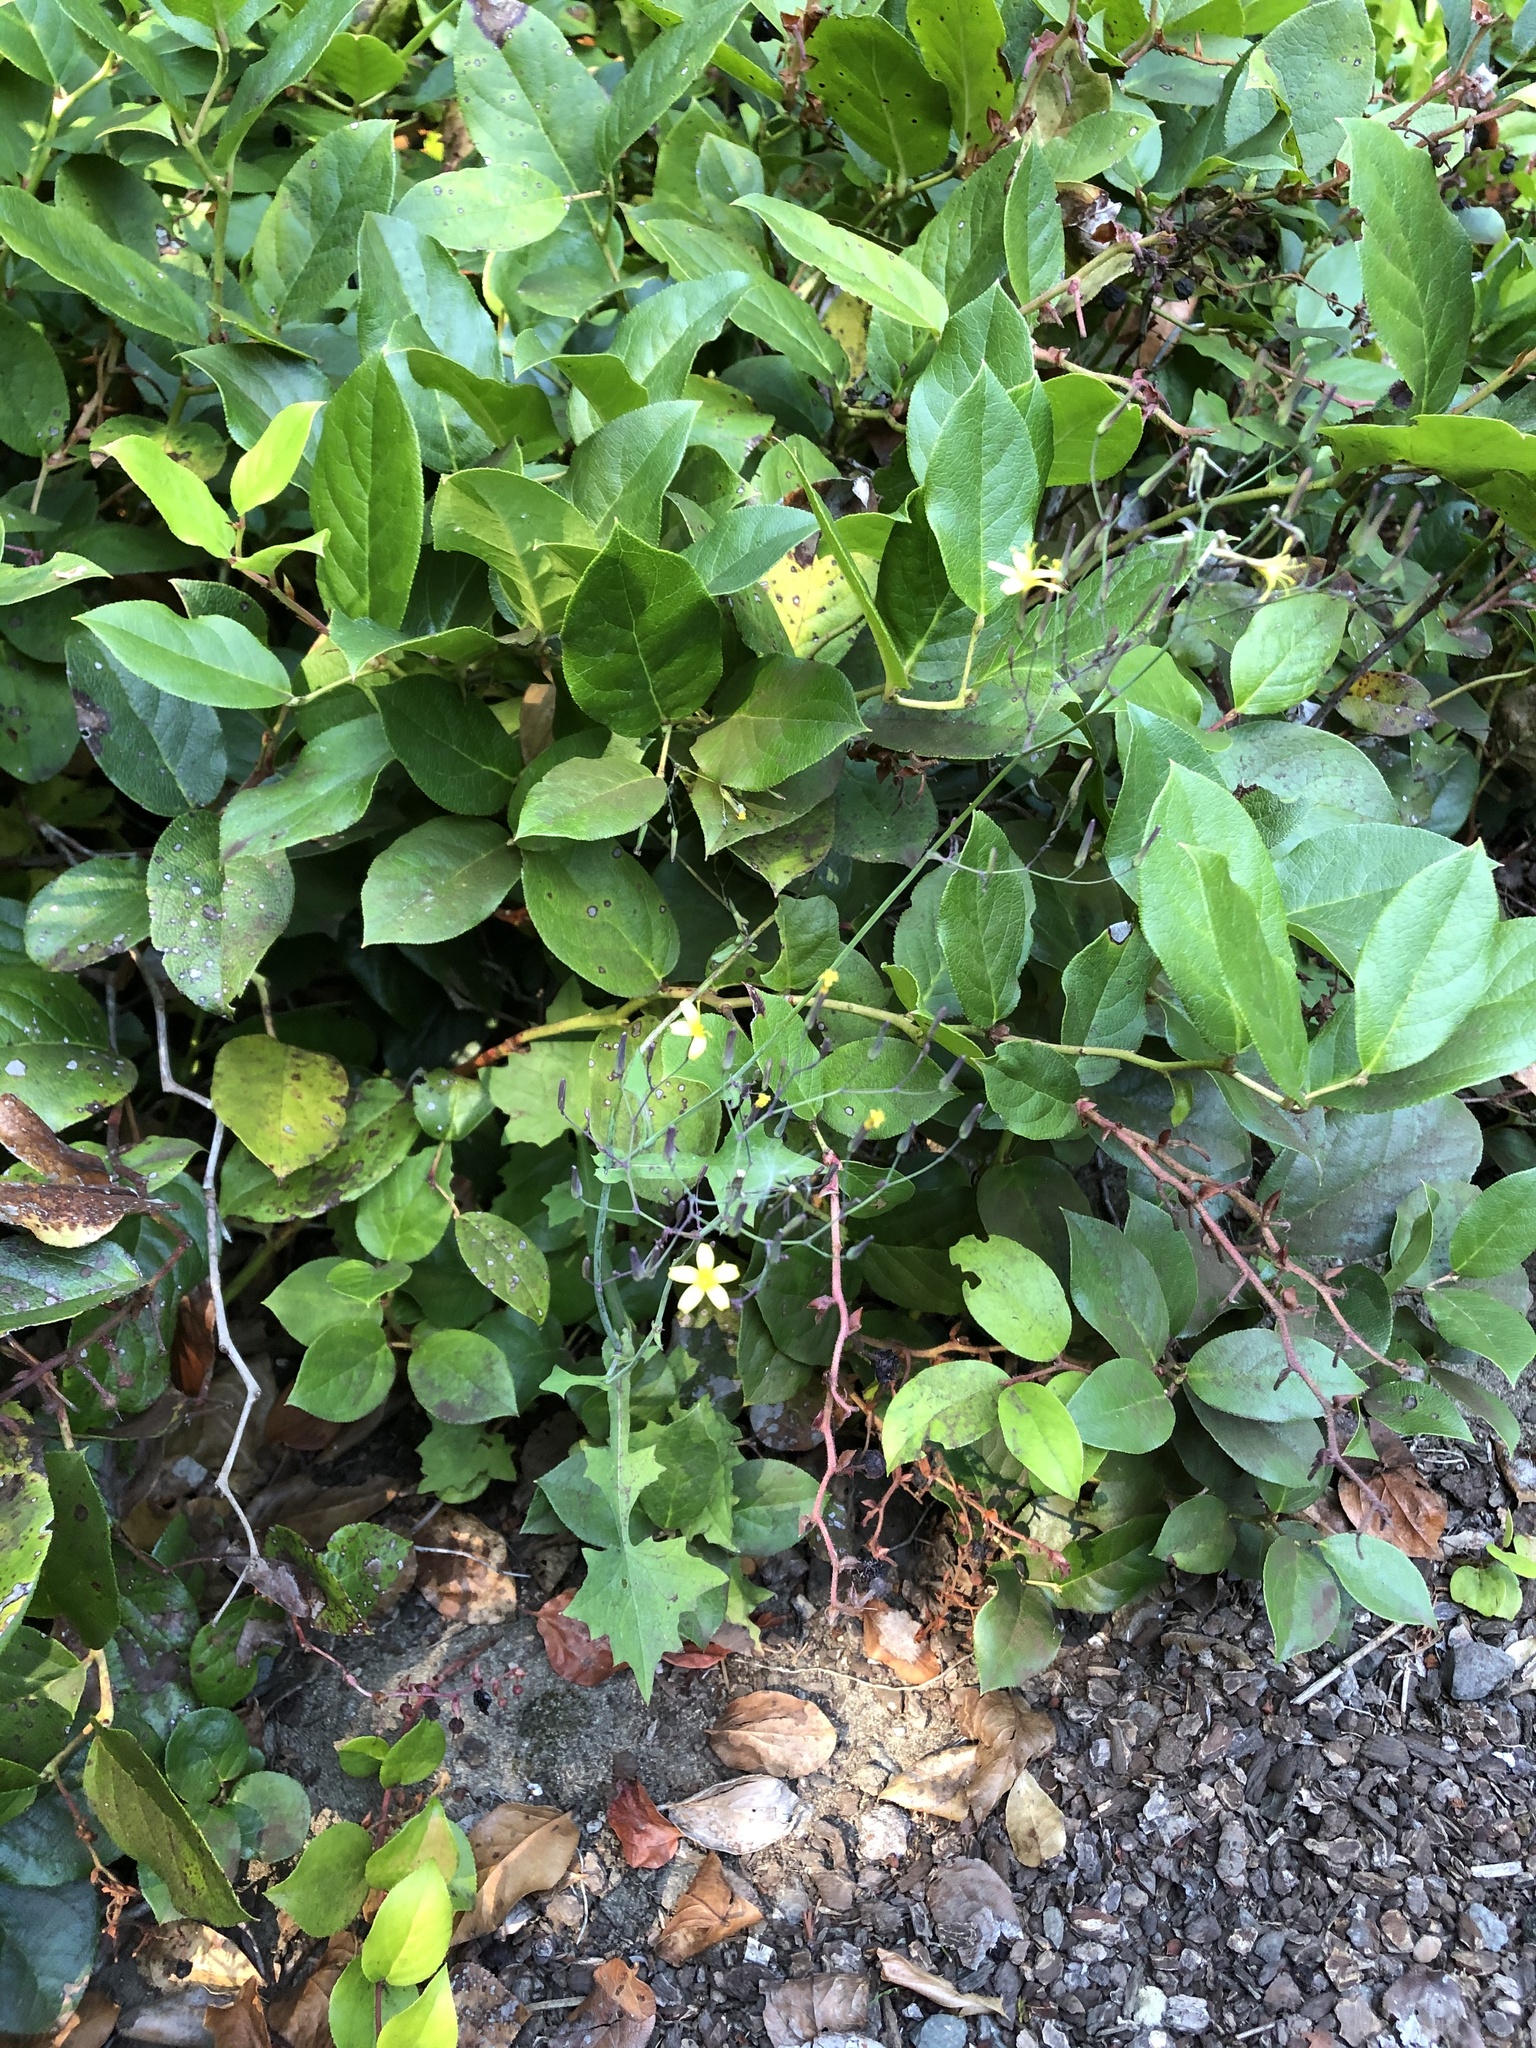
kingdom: Plantae
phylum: Tracheophyta
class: Magnoliopsida
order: Asterales
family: Asteraceae
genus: Mycelis
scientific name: Mycelis muralis
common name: Wall lettuce
